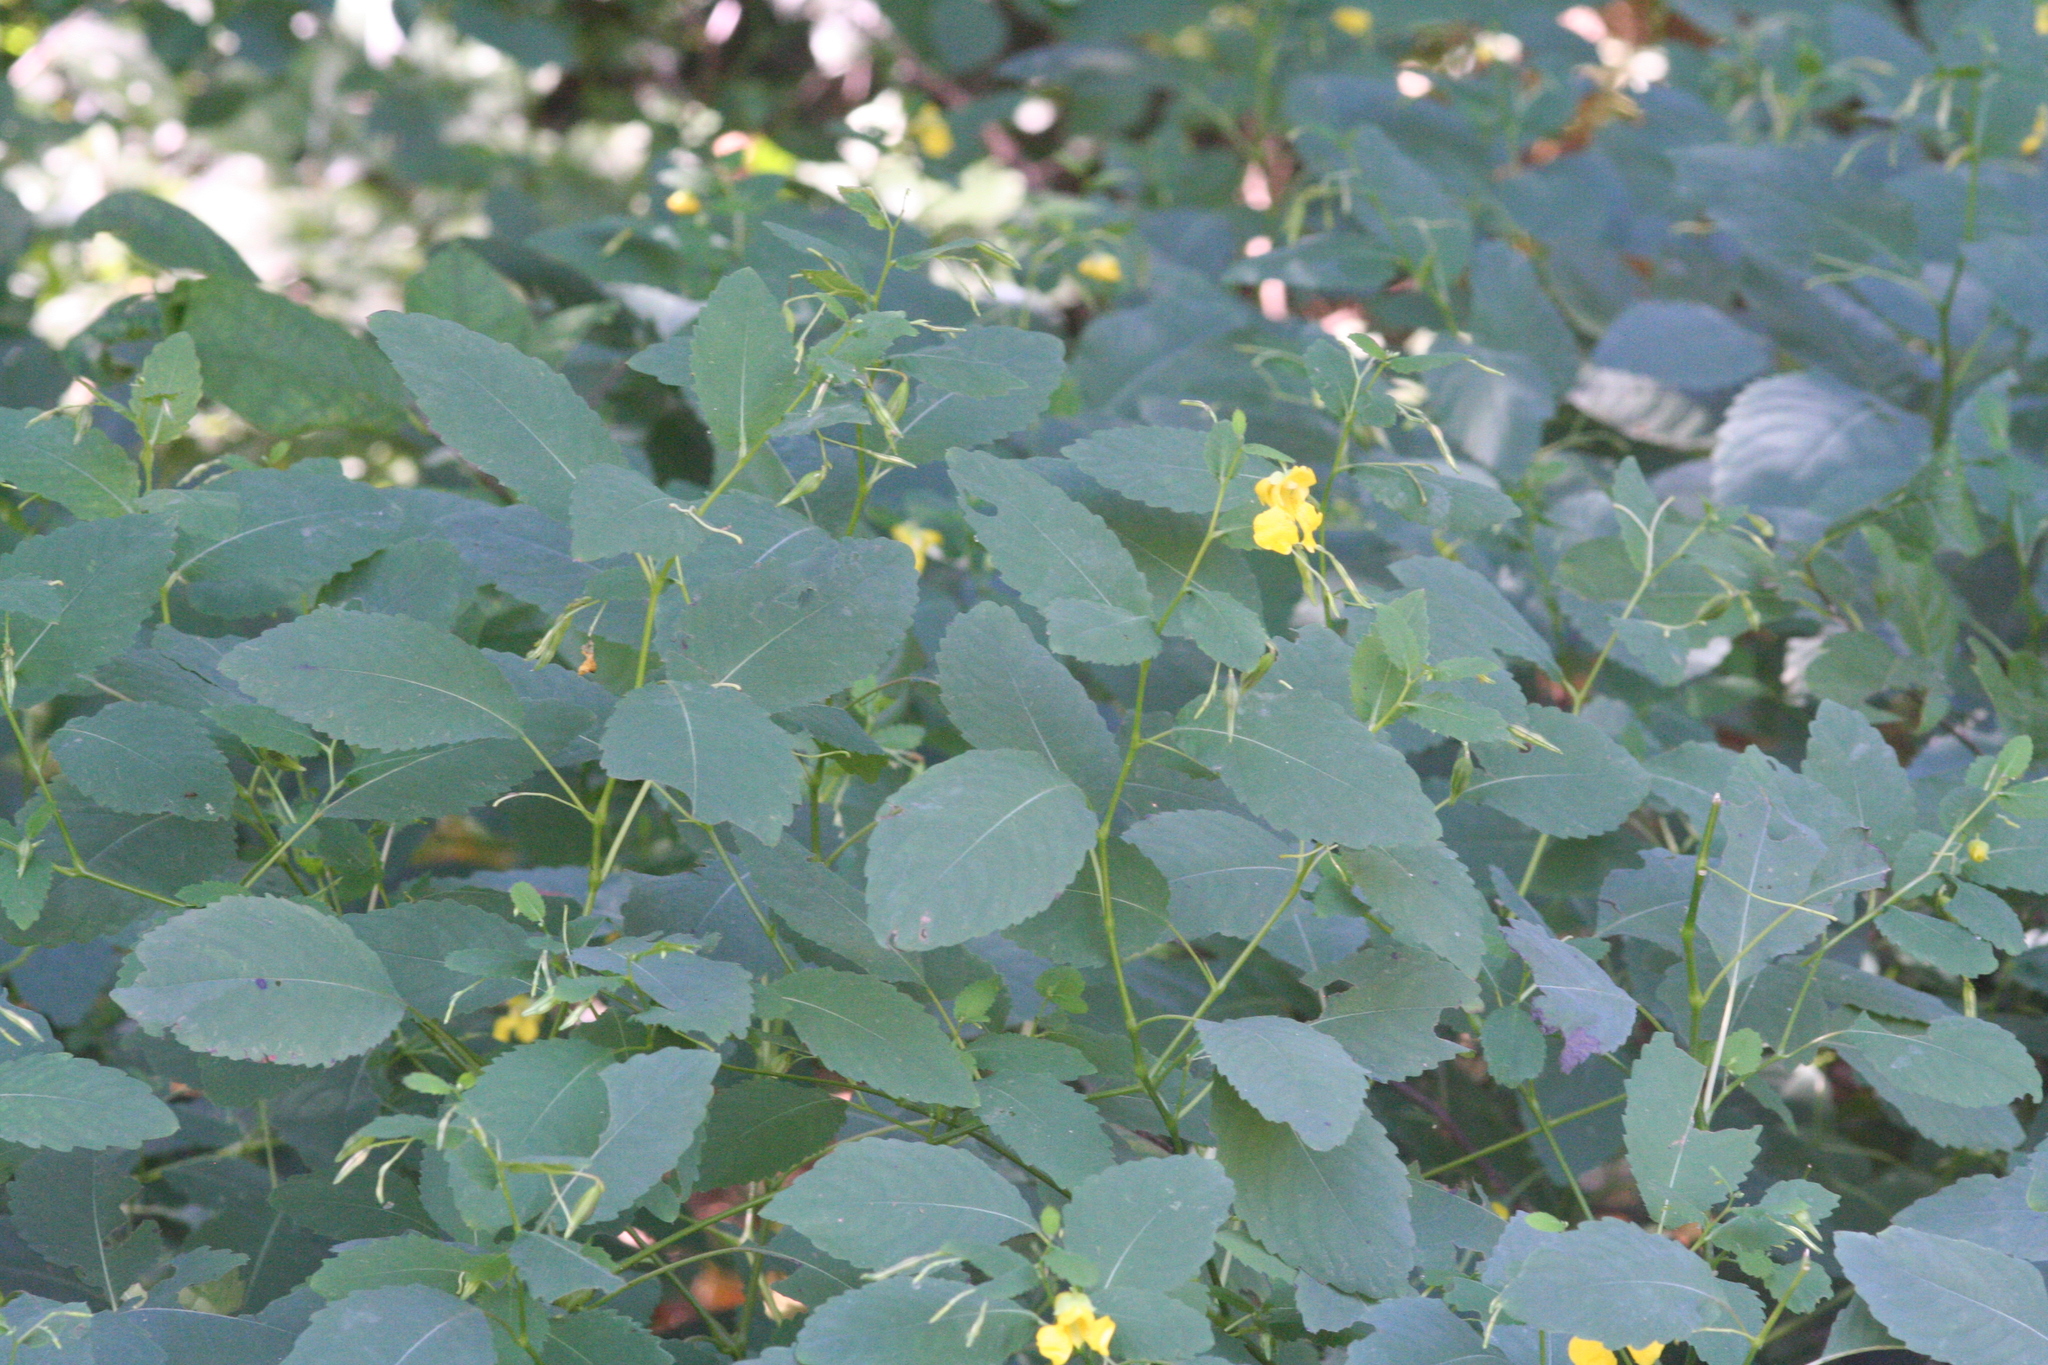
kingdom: Plantae
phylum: Tracheophyta
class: Magnoliopsida
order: Ericales
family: Balsaminaceae
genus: Impatiens
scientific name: Impatiens pallida
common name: Pale snapweed
